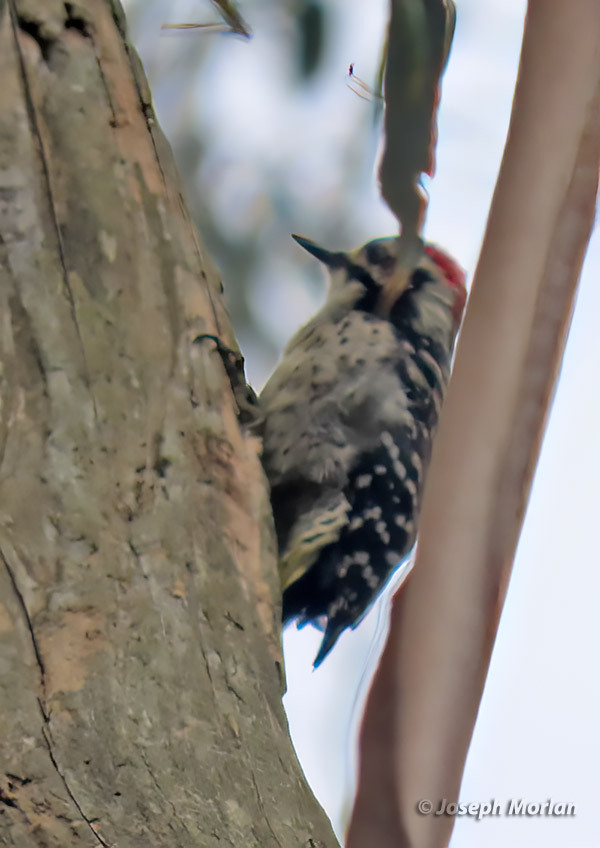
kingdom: Animalia
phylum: Chordata
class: Aves
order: Piciformes
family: Picidae
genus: Dryobates
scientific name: Dryobates nuttallii
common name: Nuttall's woodpecker
